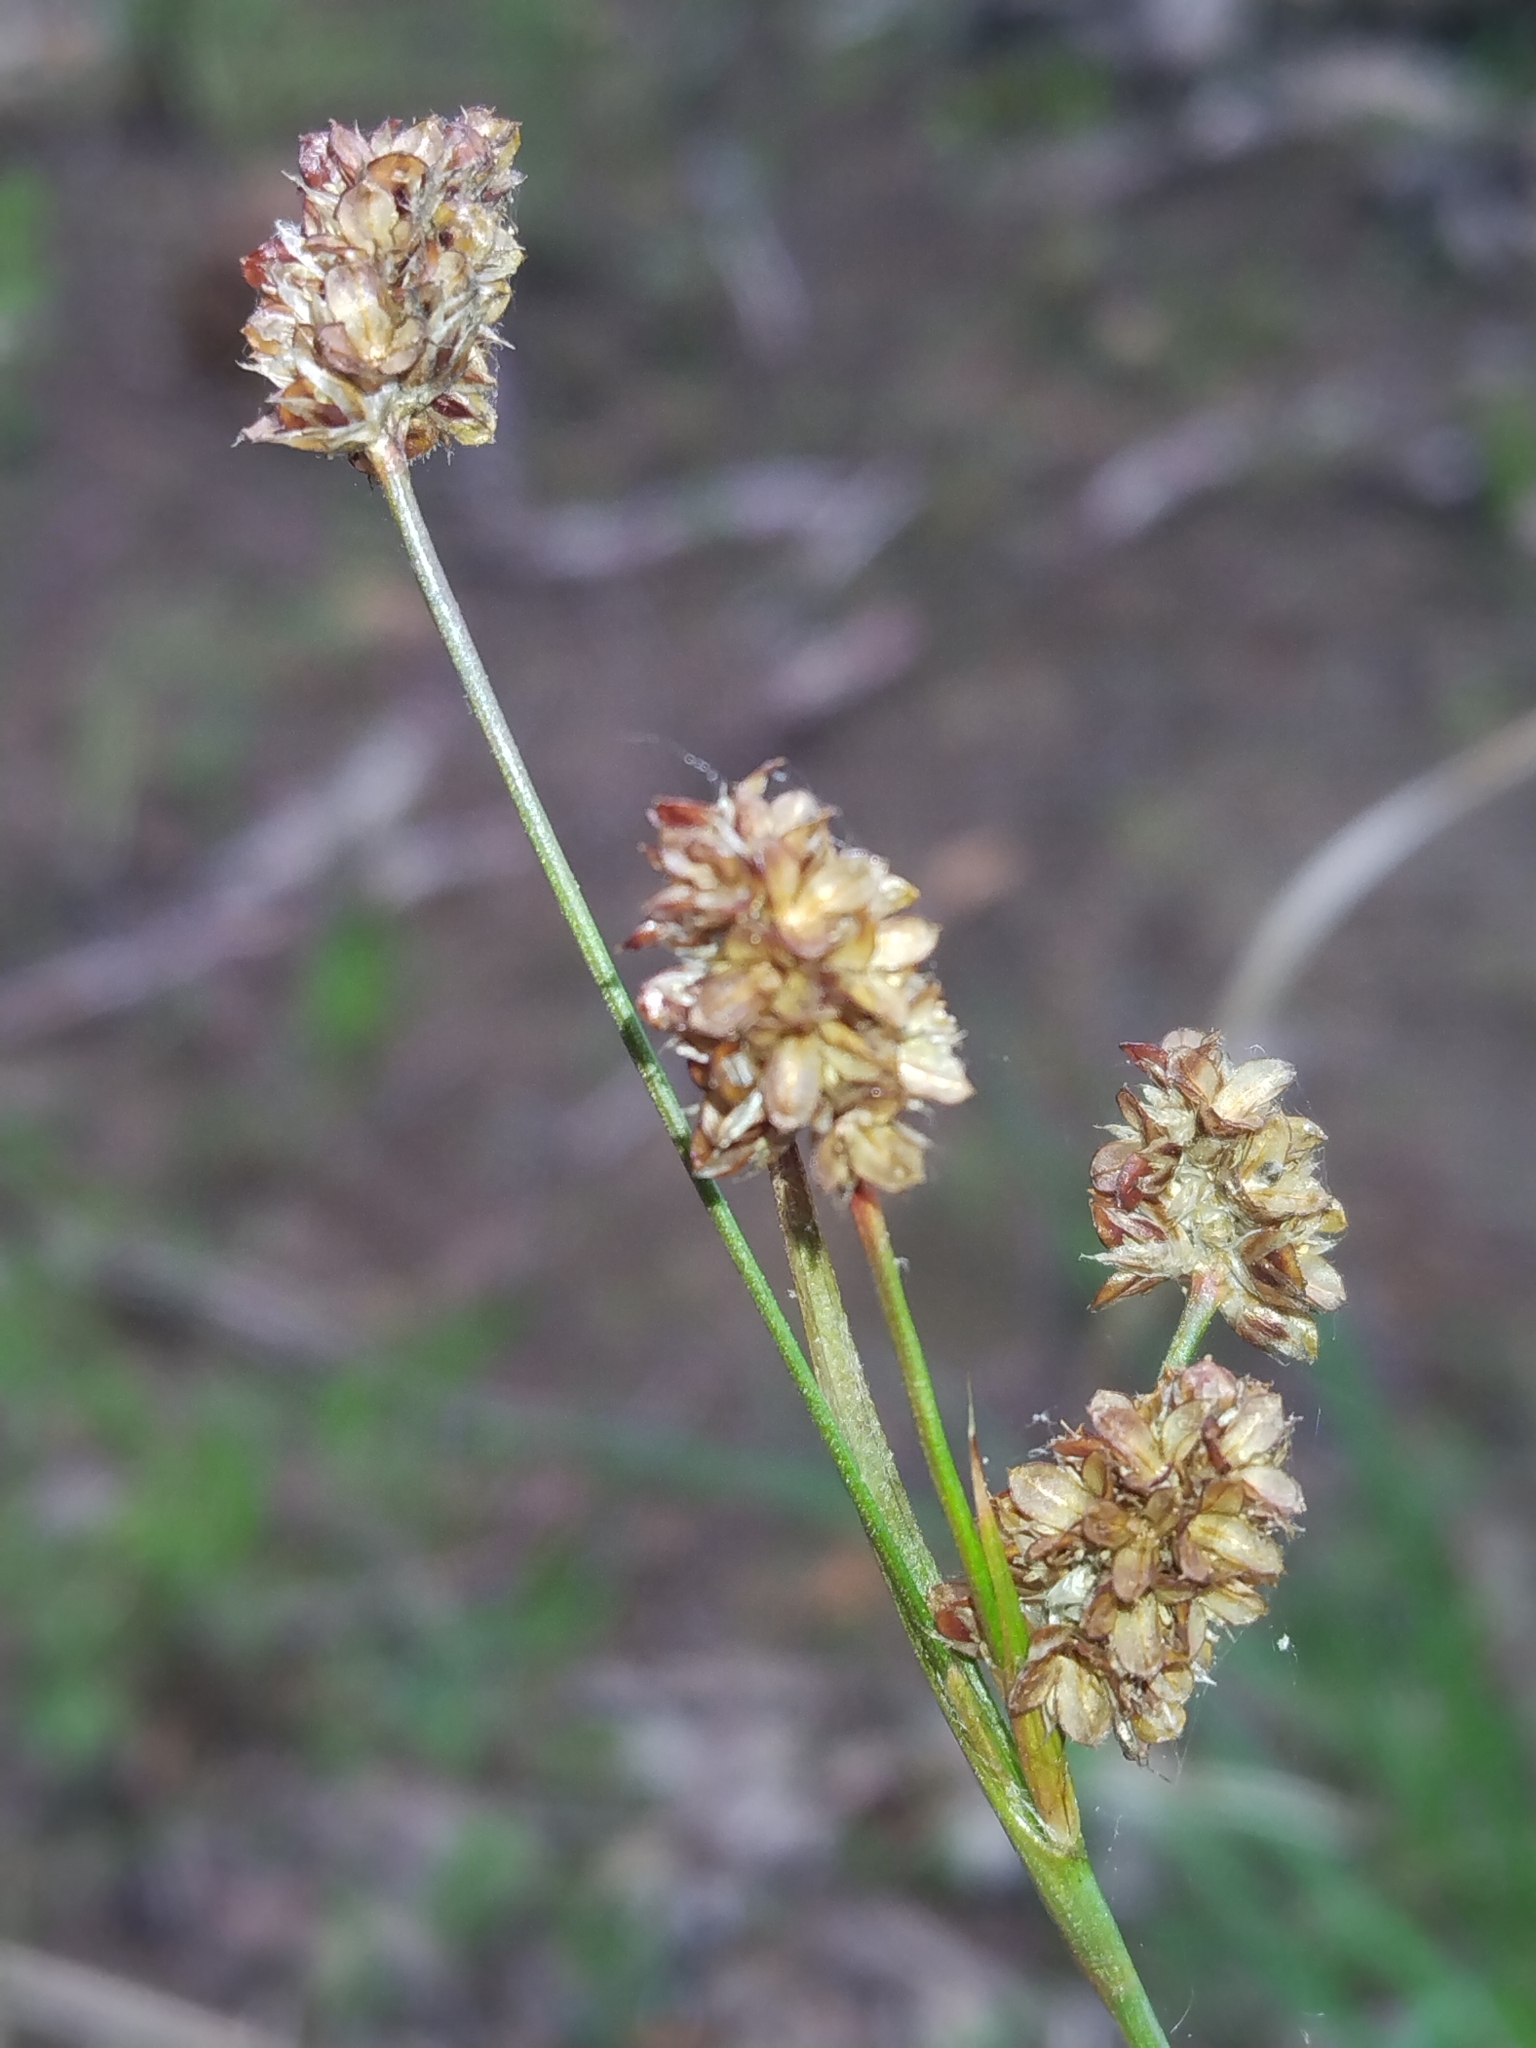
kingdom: Plantae
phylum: Tracheophyta
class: Liliopsida
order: Poales
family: Juncaceae
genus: Luzula
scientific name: Luzula bulbosa
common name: Bulbous woodrush
